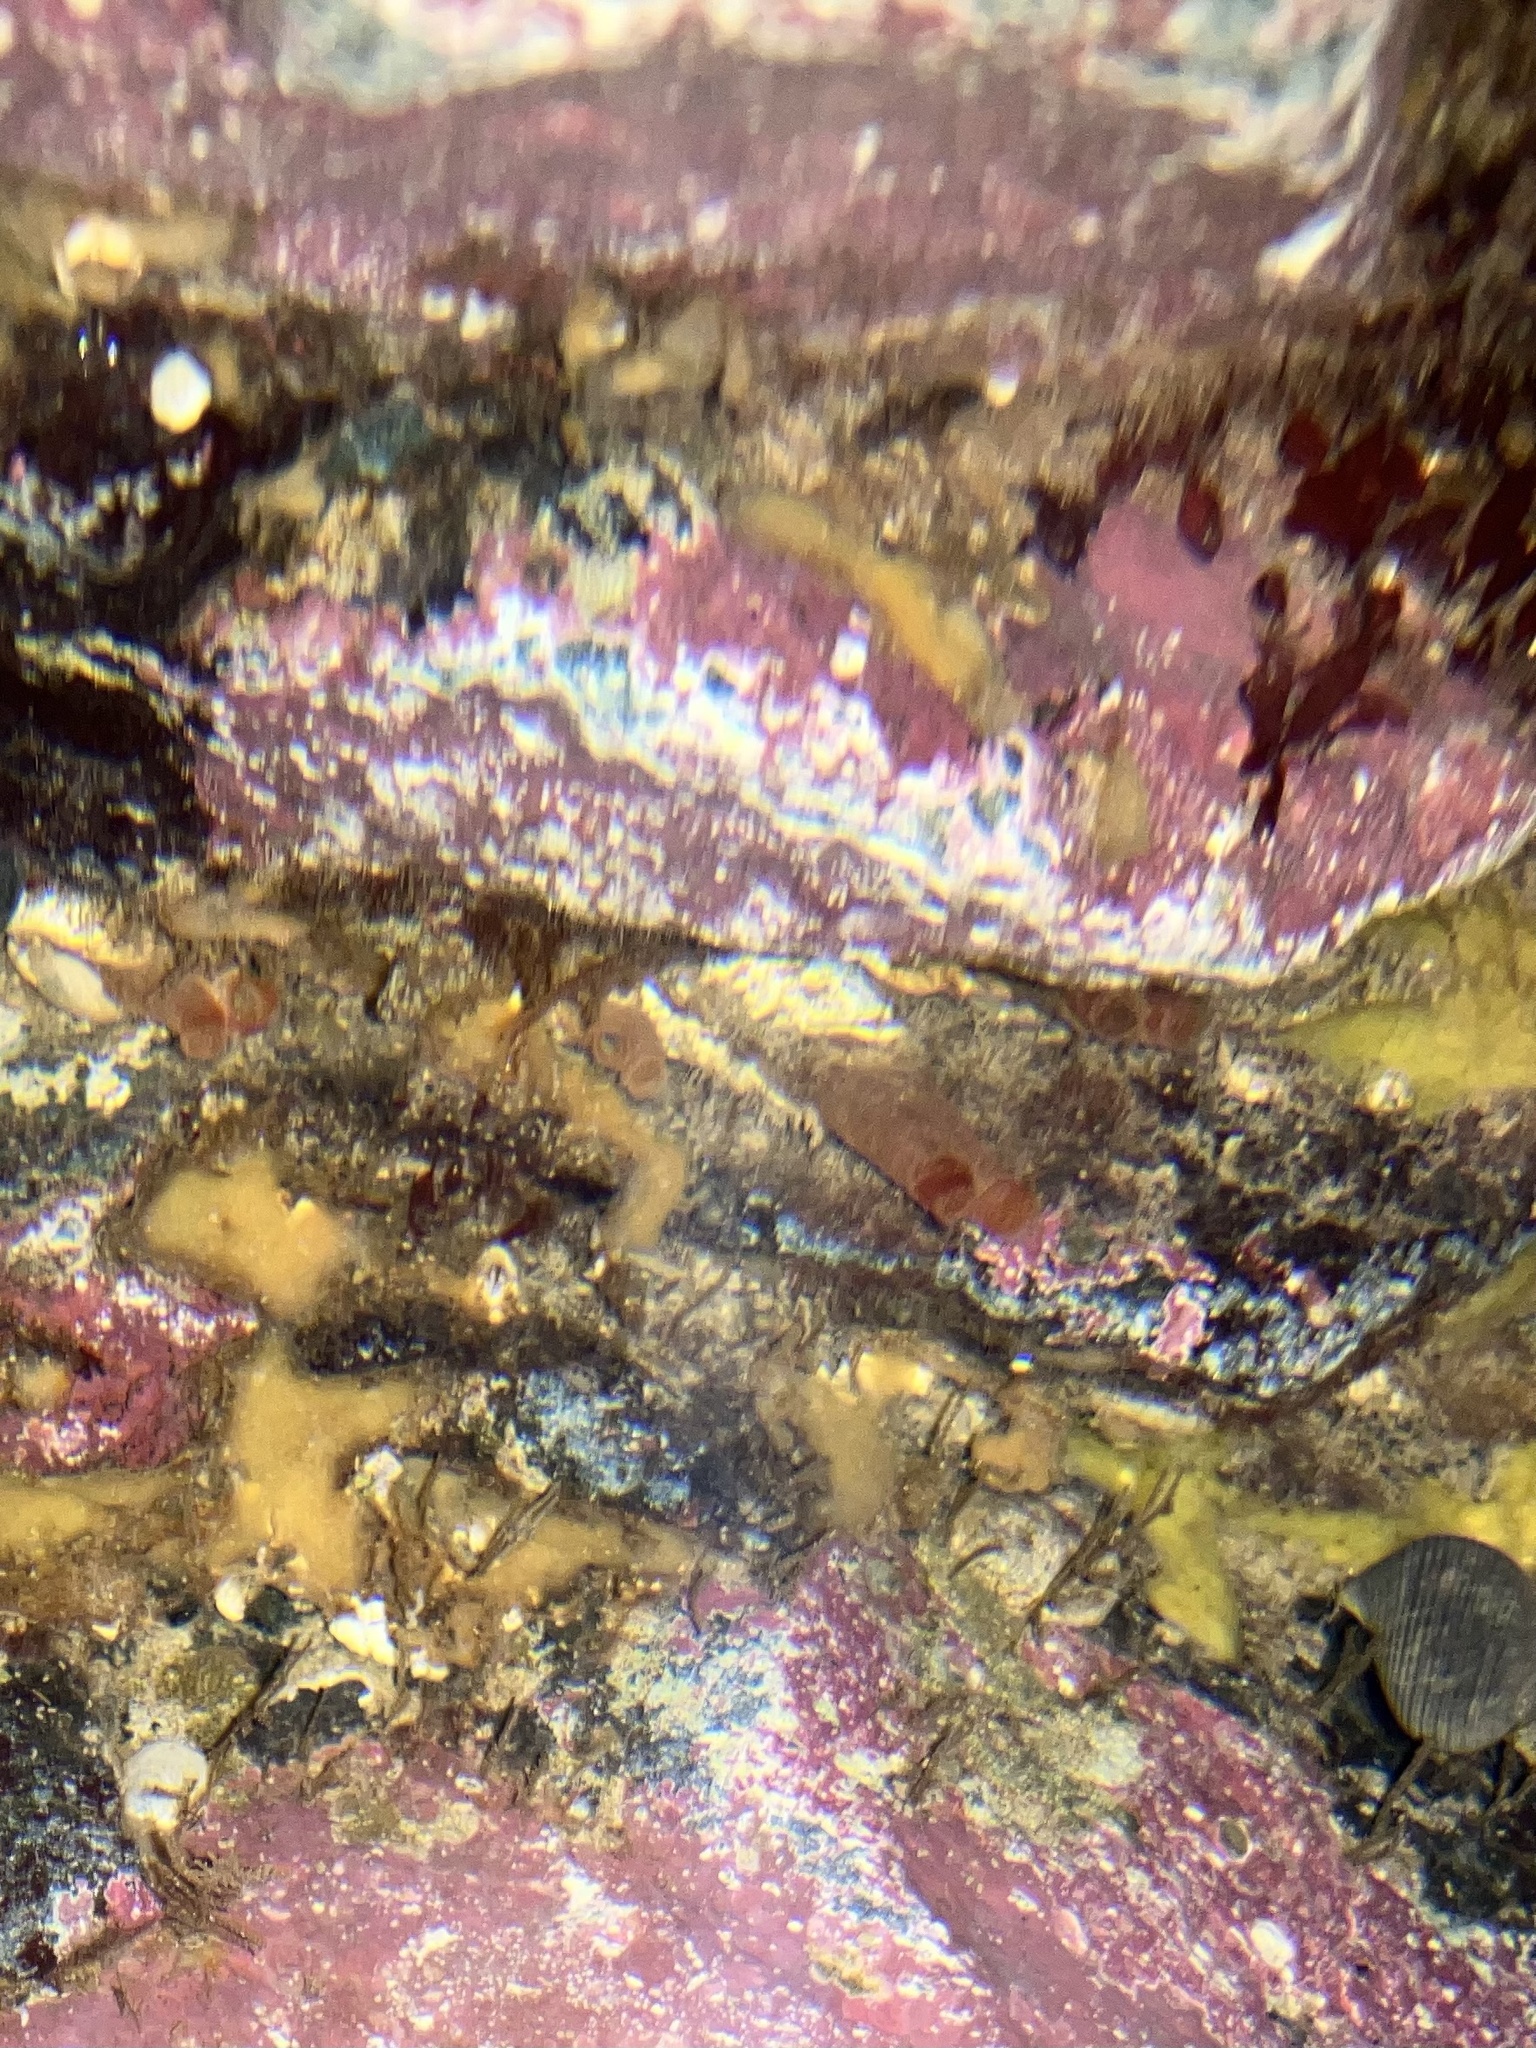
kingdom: Animalia
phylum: Mollusca
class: Bivalvia
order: Adapedonta
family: Hiatellidae
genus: Hiatella
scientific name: Hiatella arctica
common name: Arctic hiatella
